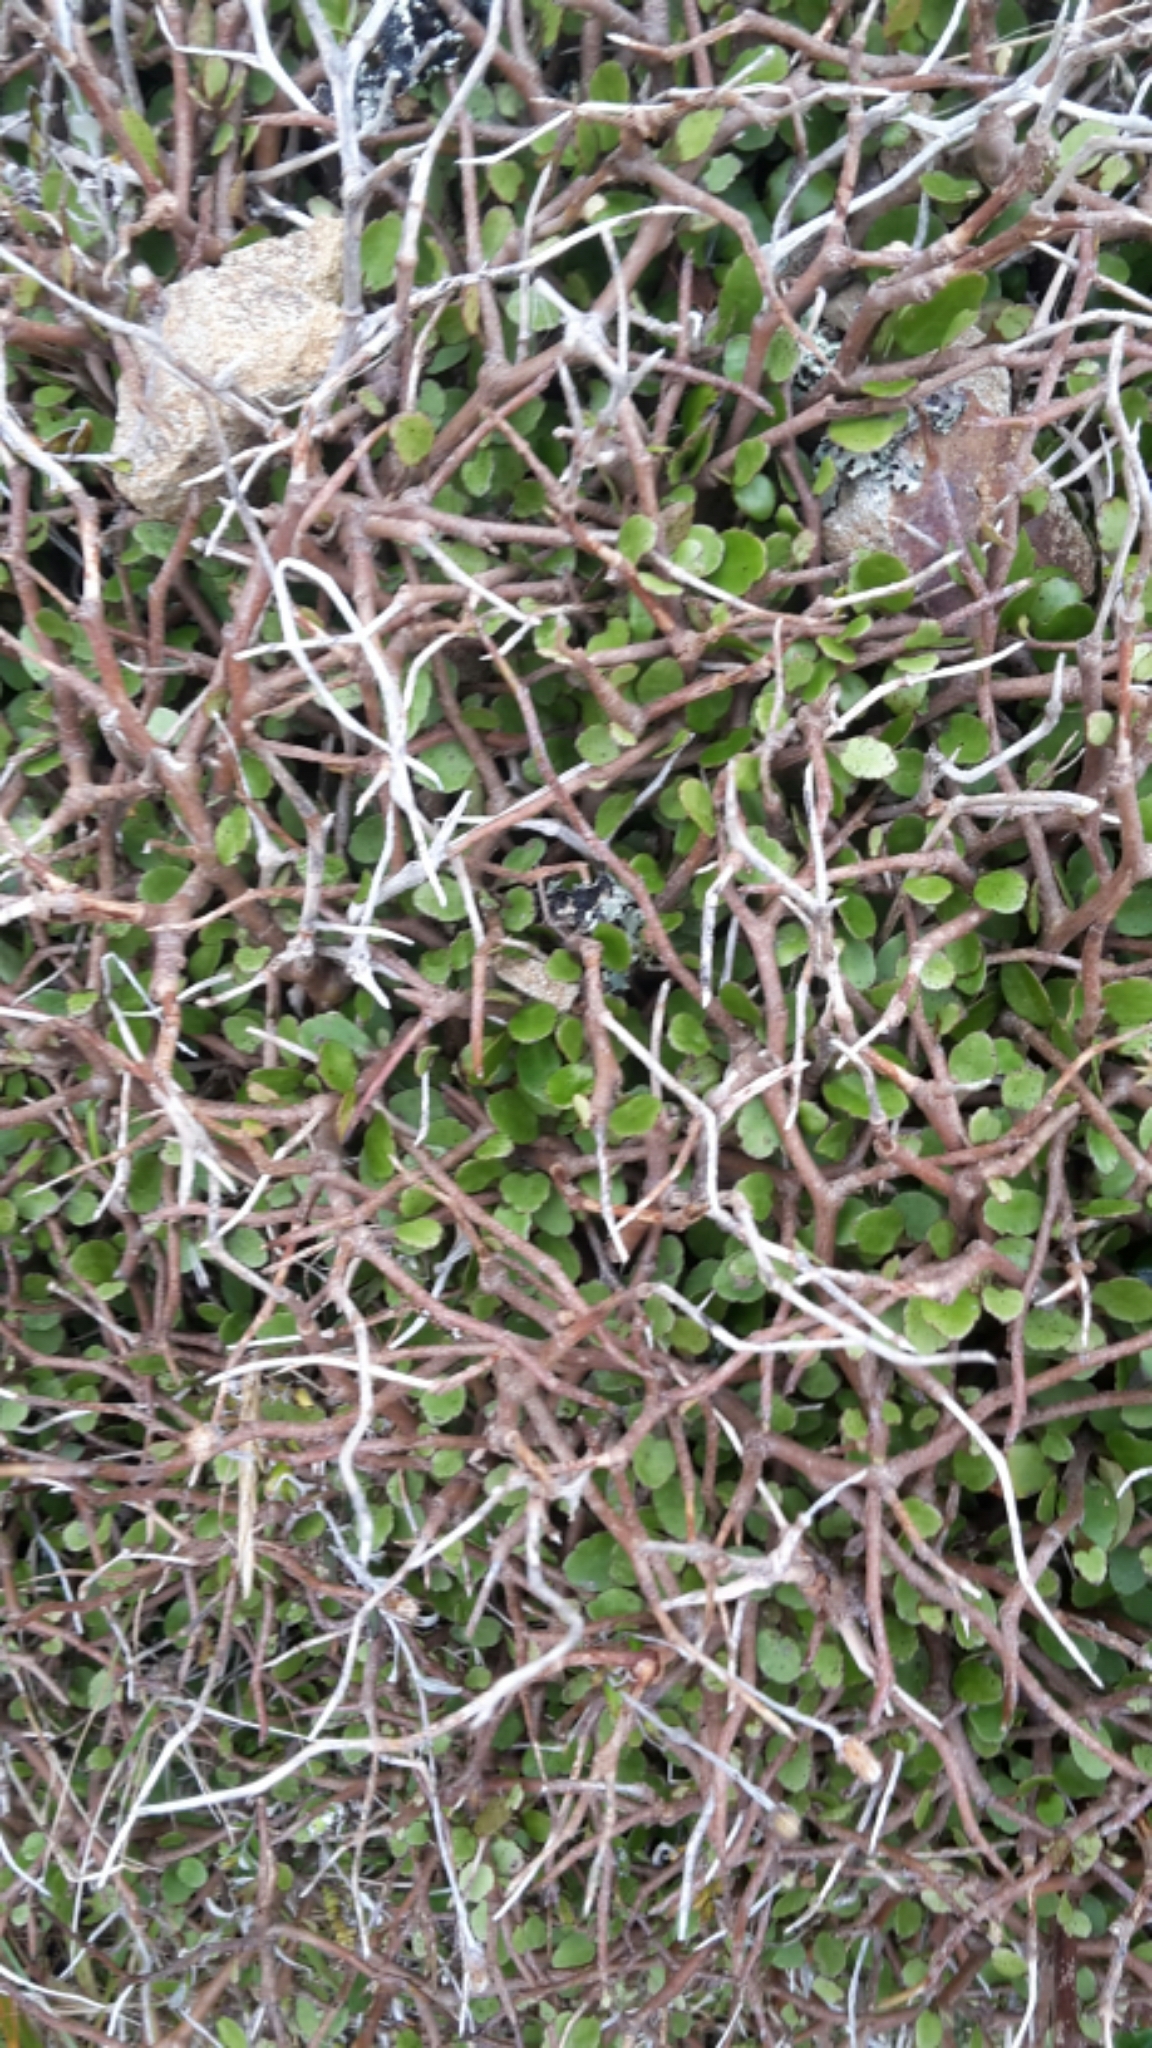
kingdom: Plantae
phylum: Tracheophyta
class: Magnoliopsida
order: Apiales
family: Araliaceae
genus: Raukaua
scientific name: Raukaua anomalus
